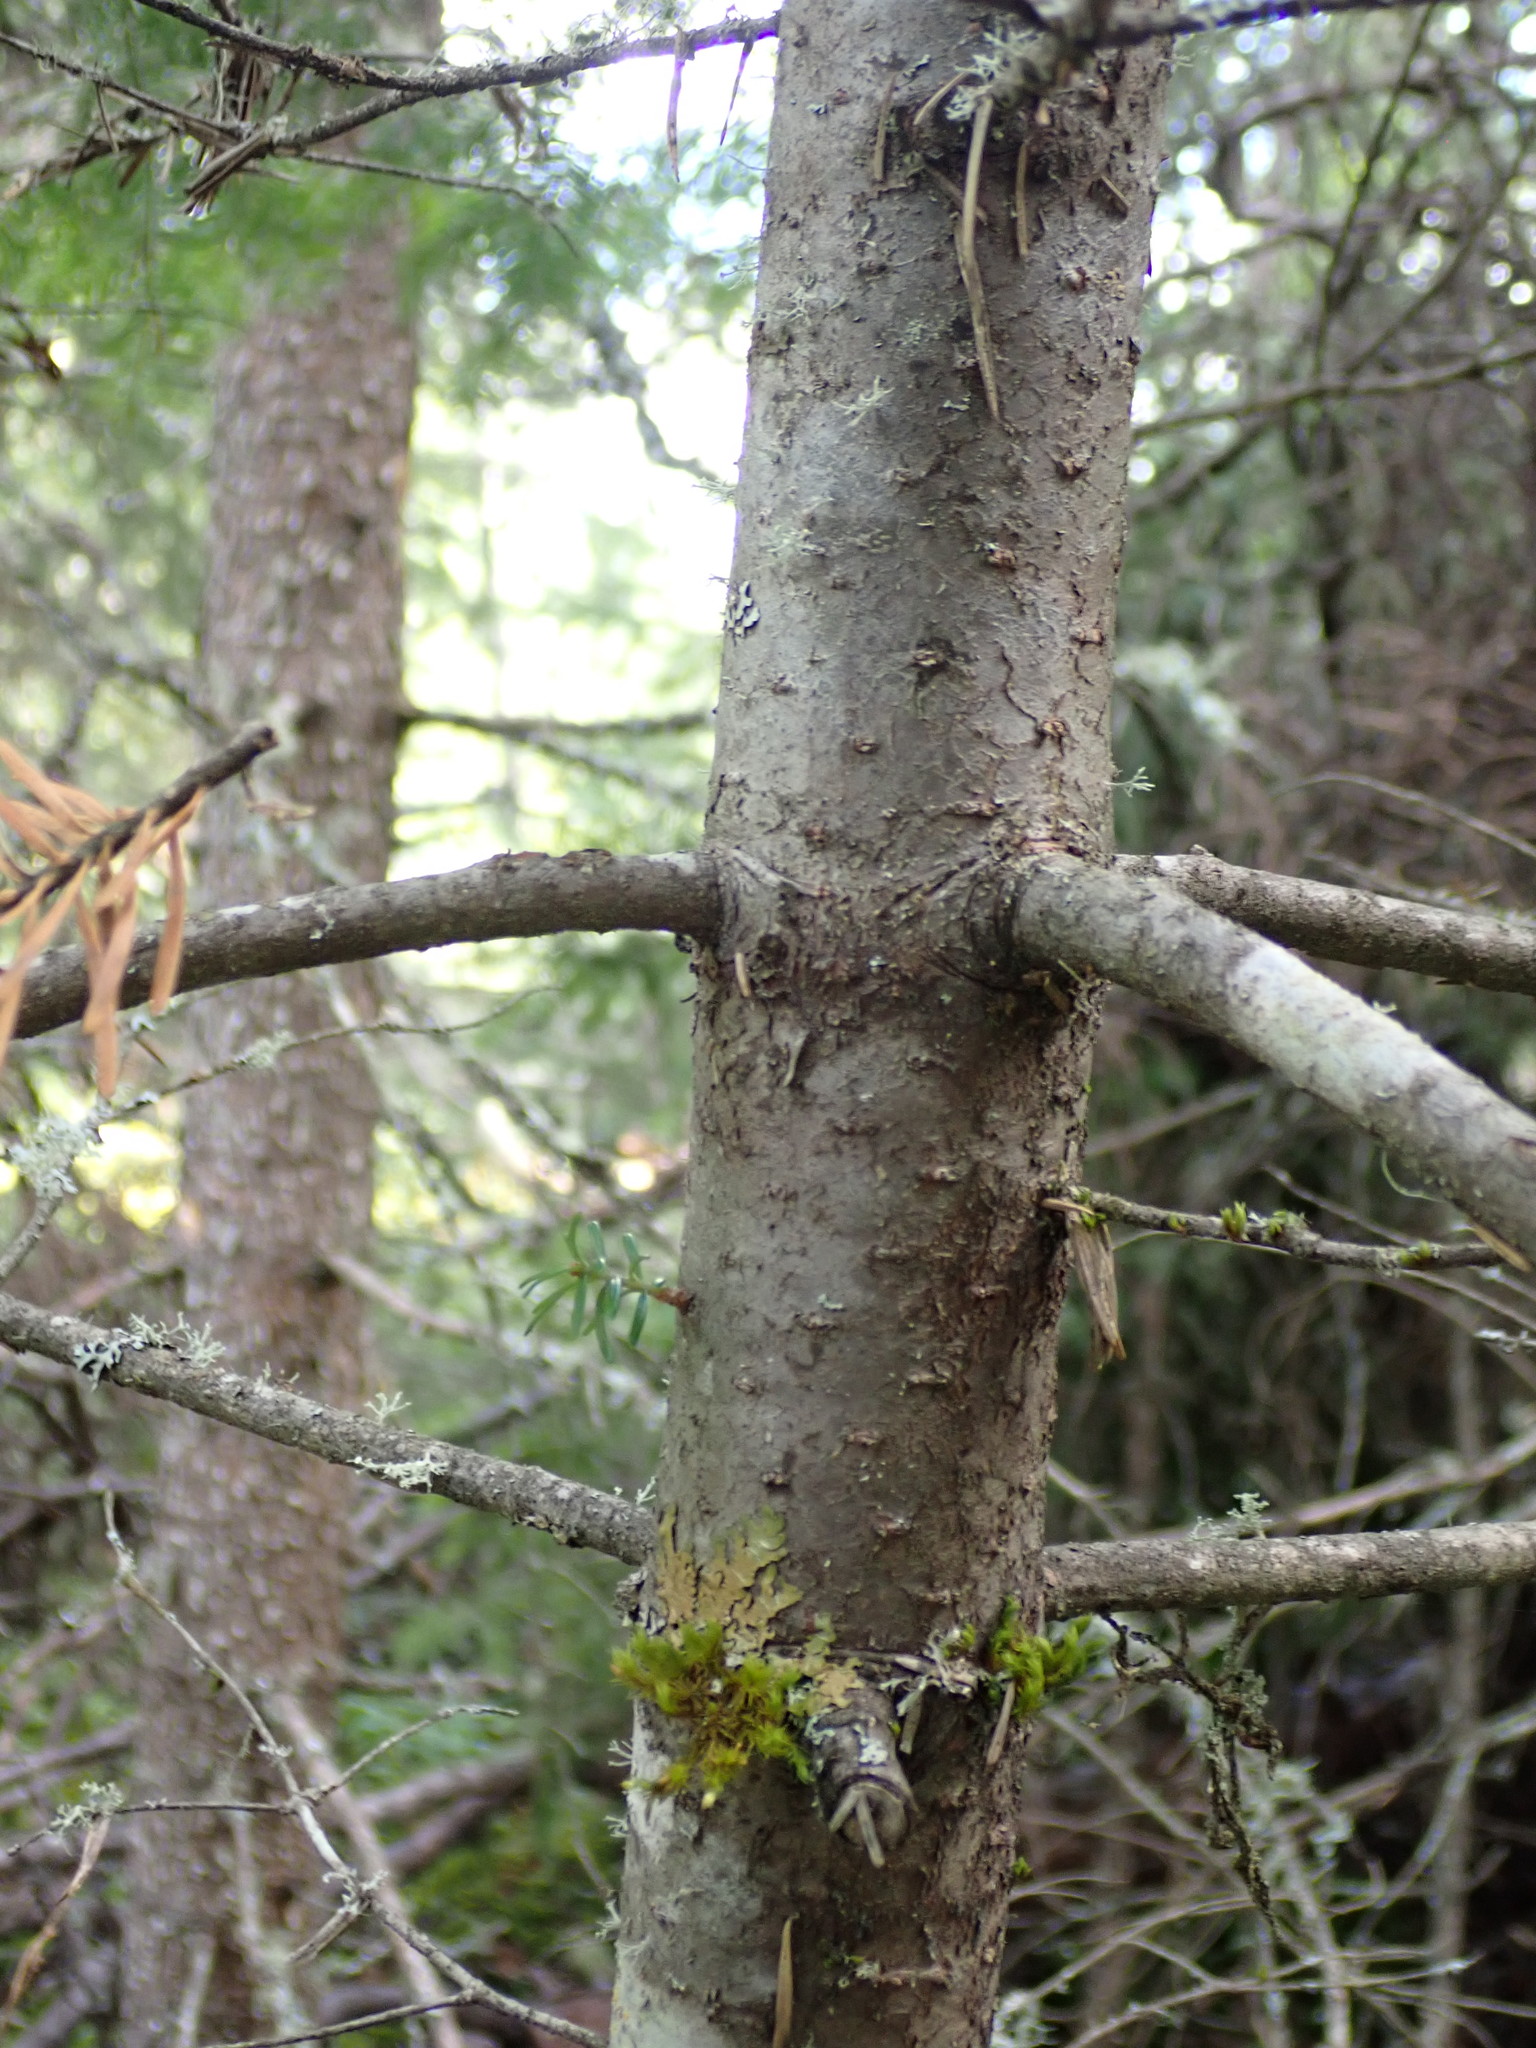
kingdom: Plantae
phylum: Tracheophyta
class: Pinopsida
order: Pinales
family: Pinaceae
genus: Abies
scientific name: Abies balsamea
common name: Balsam fir
